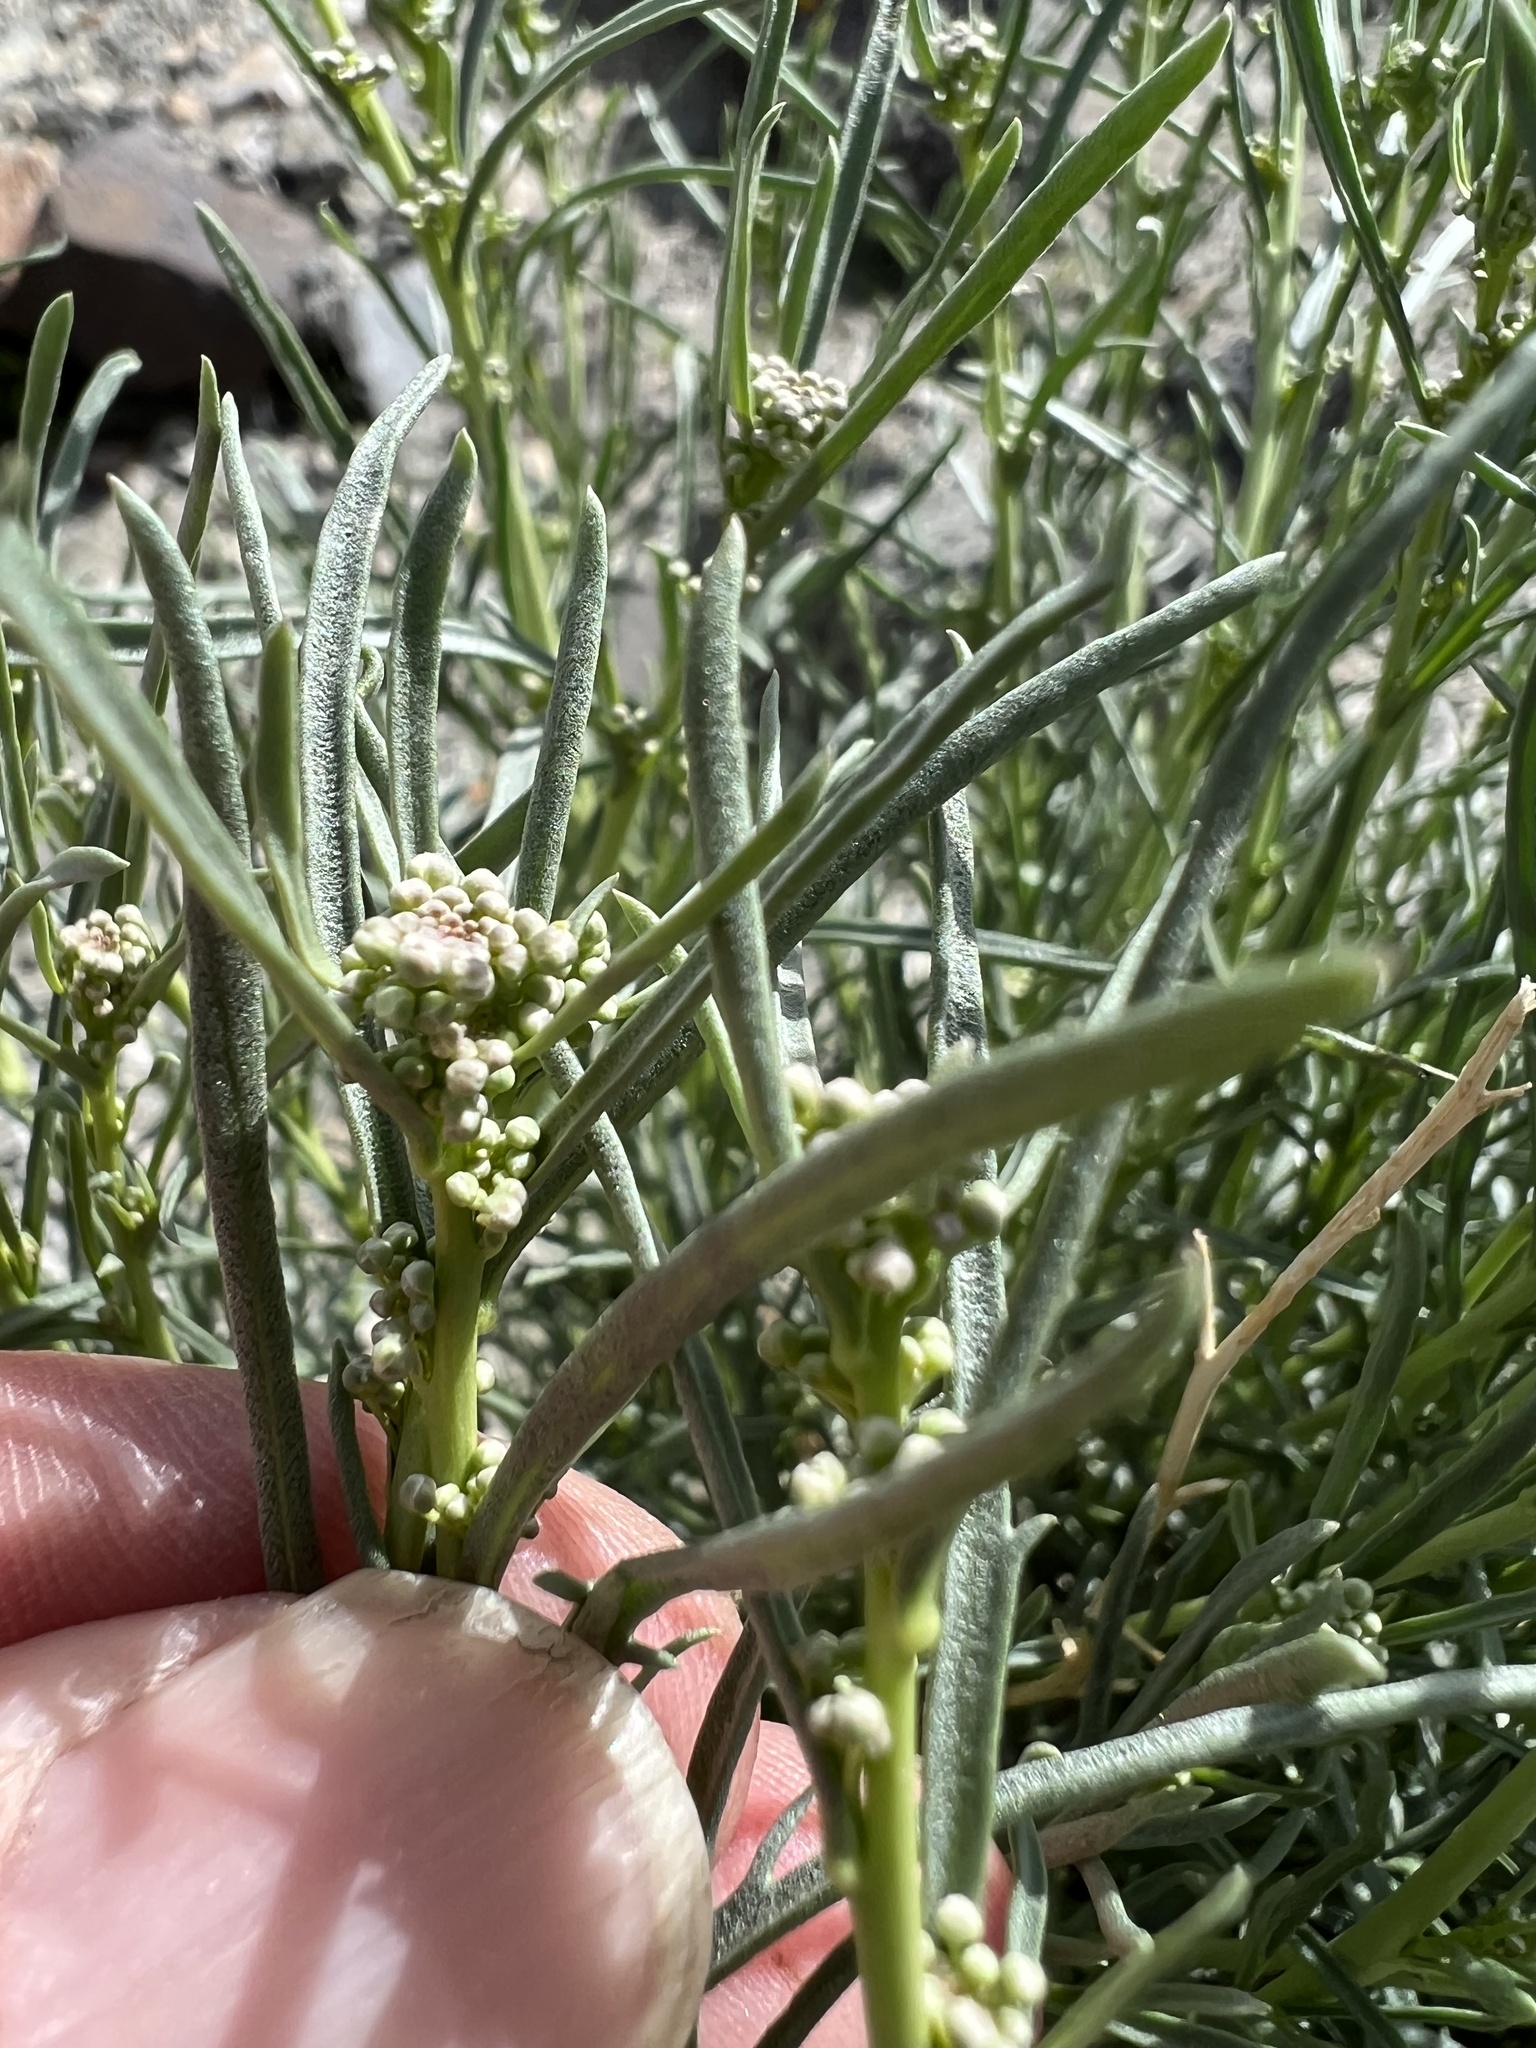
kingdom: Plantae
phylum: Tracheophyta
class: Magnoliopsida
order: Brassicales
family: Brassicaceae
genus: Lepidium
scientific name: Lepidium fremontii
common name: Fremont's pepperwort
